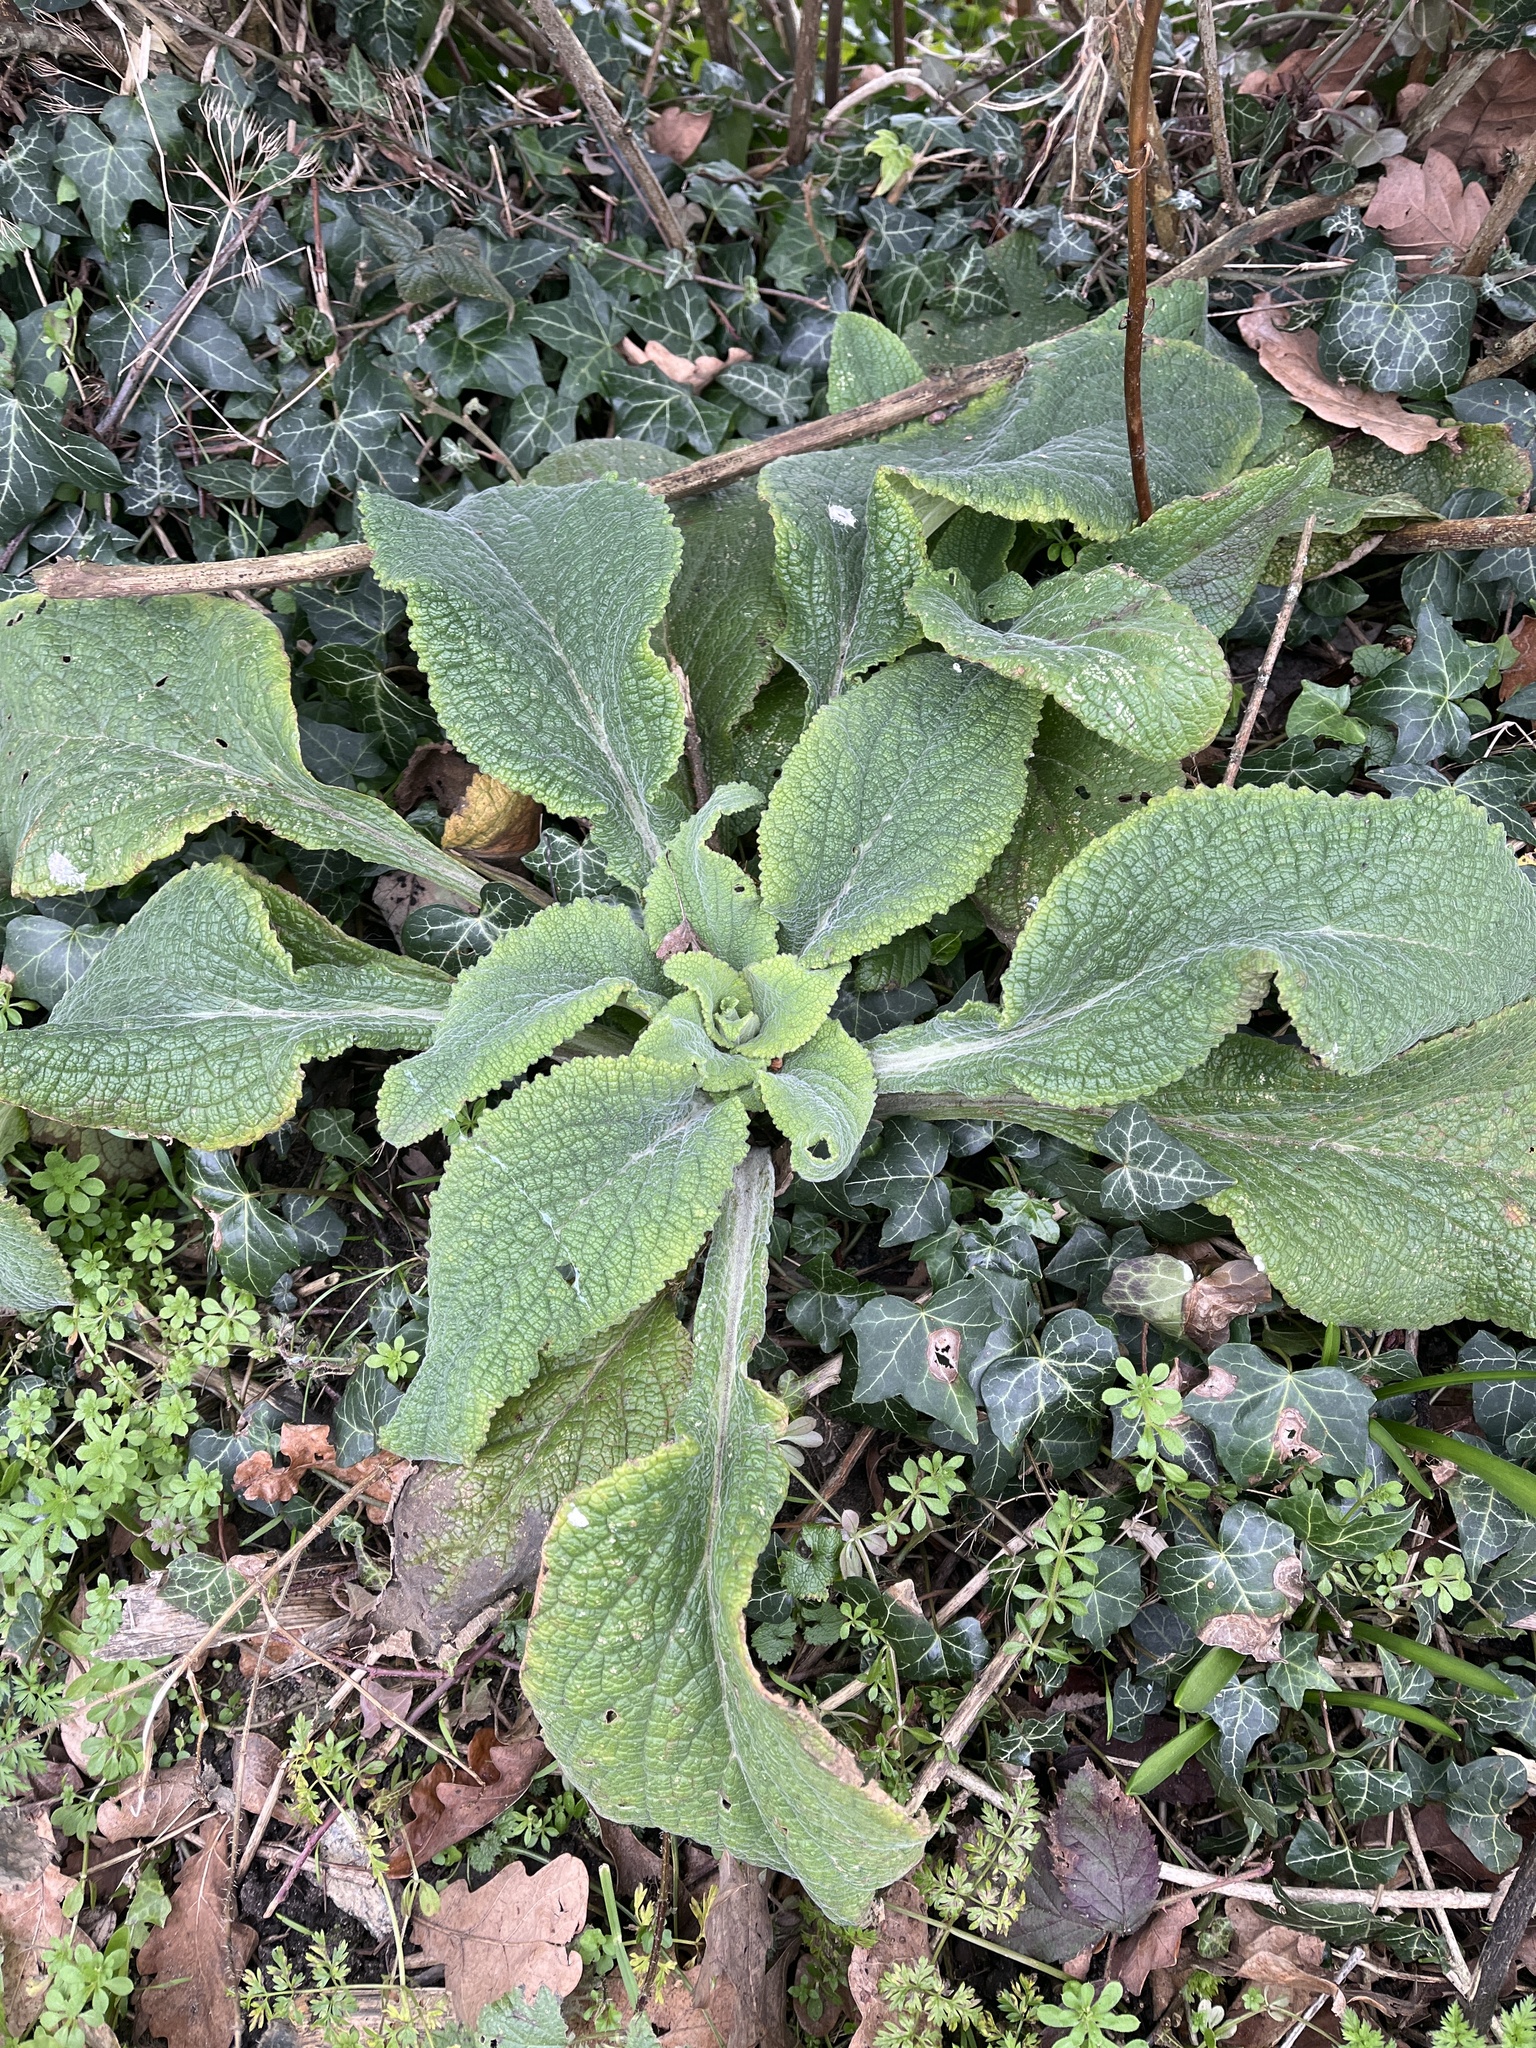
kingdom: Plantae
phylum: Tracheophyta
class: Magnoliopsida
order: Lamiales
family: Plantaginaceae
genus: Digitalis
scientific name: Digitalis purpurea
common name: Foxglove
